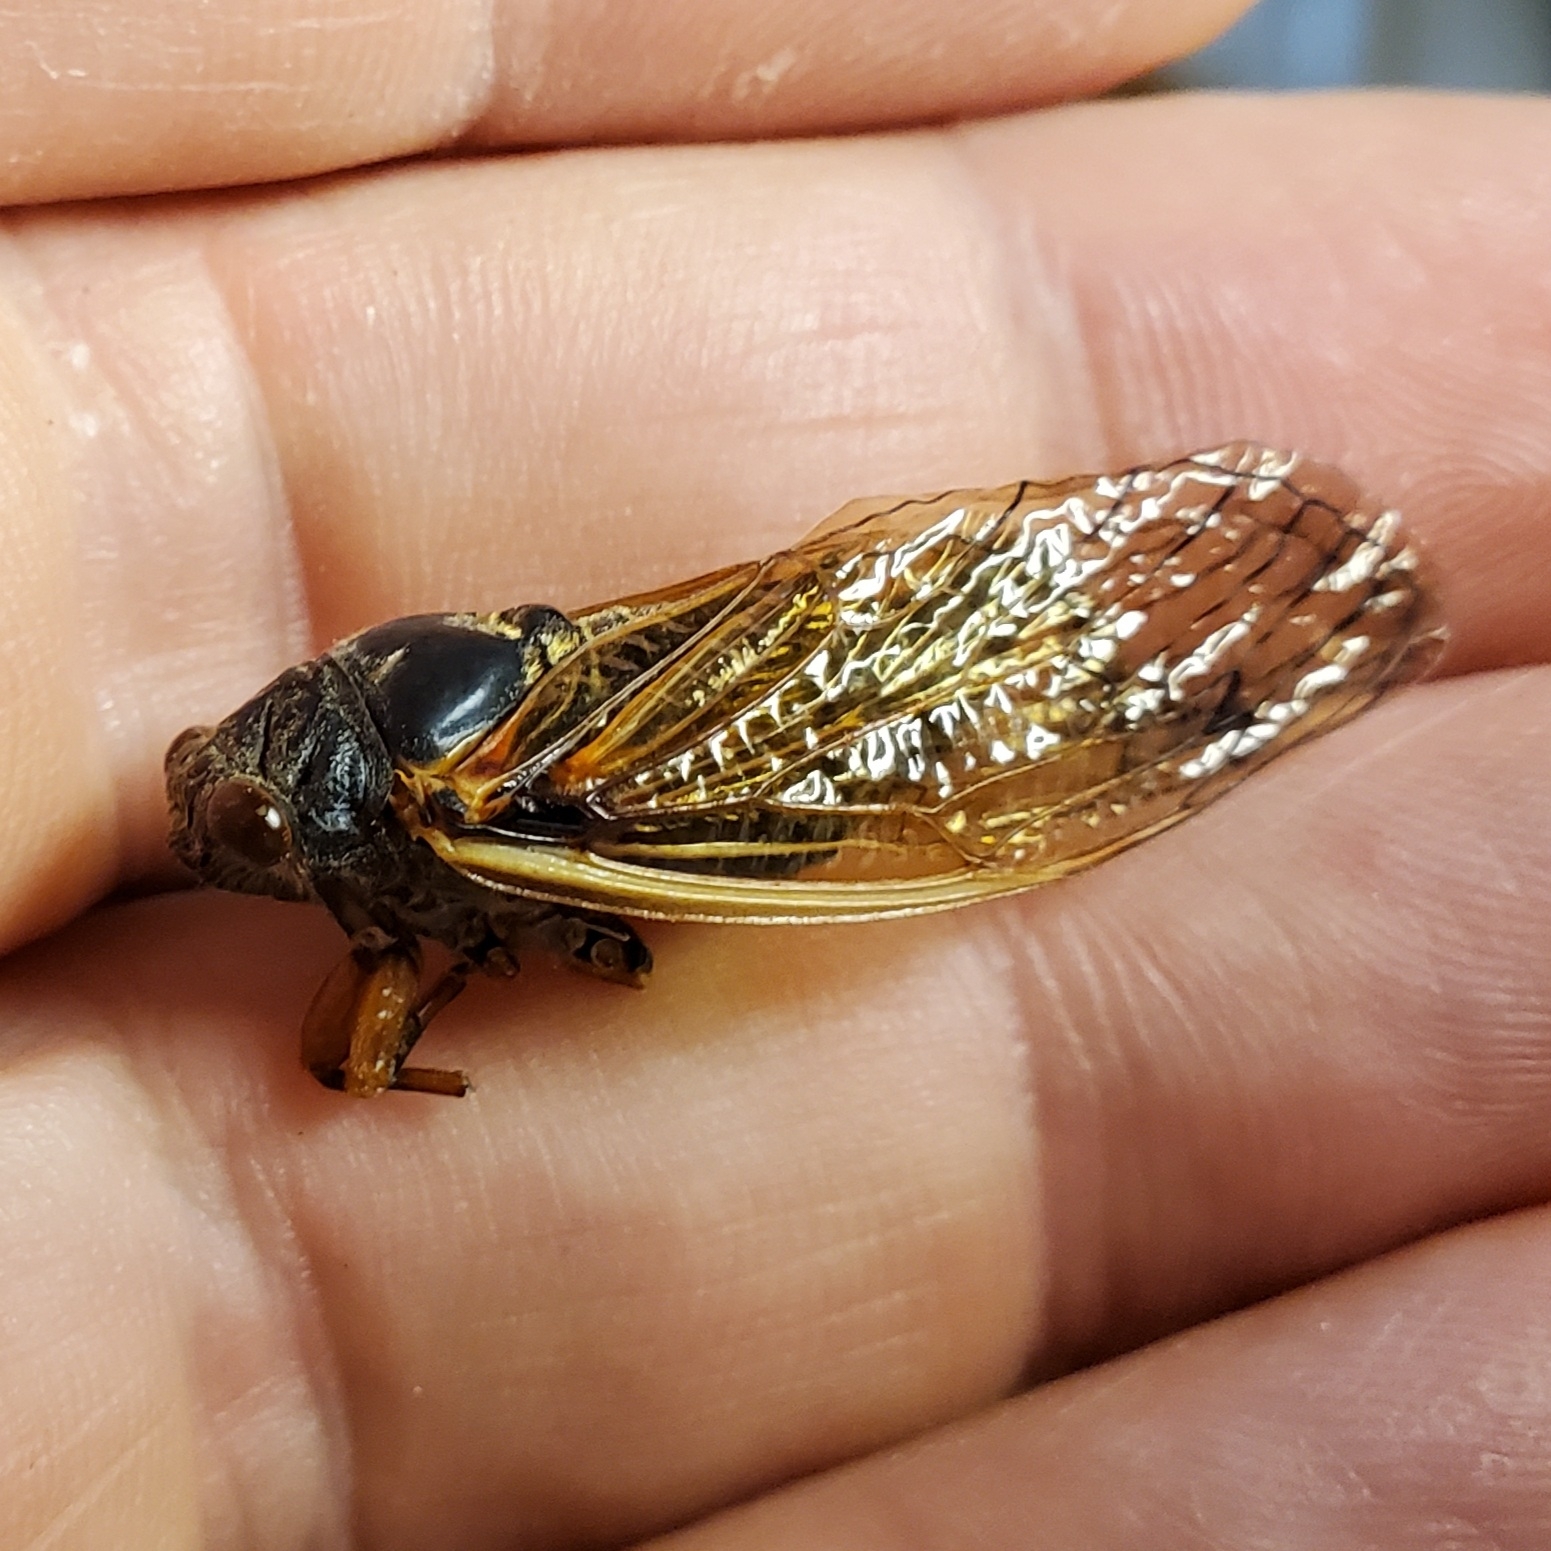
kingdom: Animalia
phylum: Arthropoda
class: Insecta
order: Hemiptera
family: Cicadidae
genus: Magicicada
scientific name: Magicicada cassini
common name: Cassin's 17-year cicada
